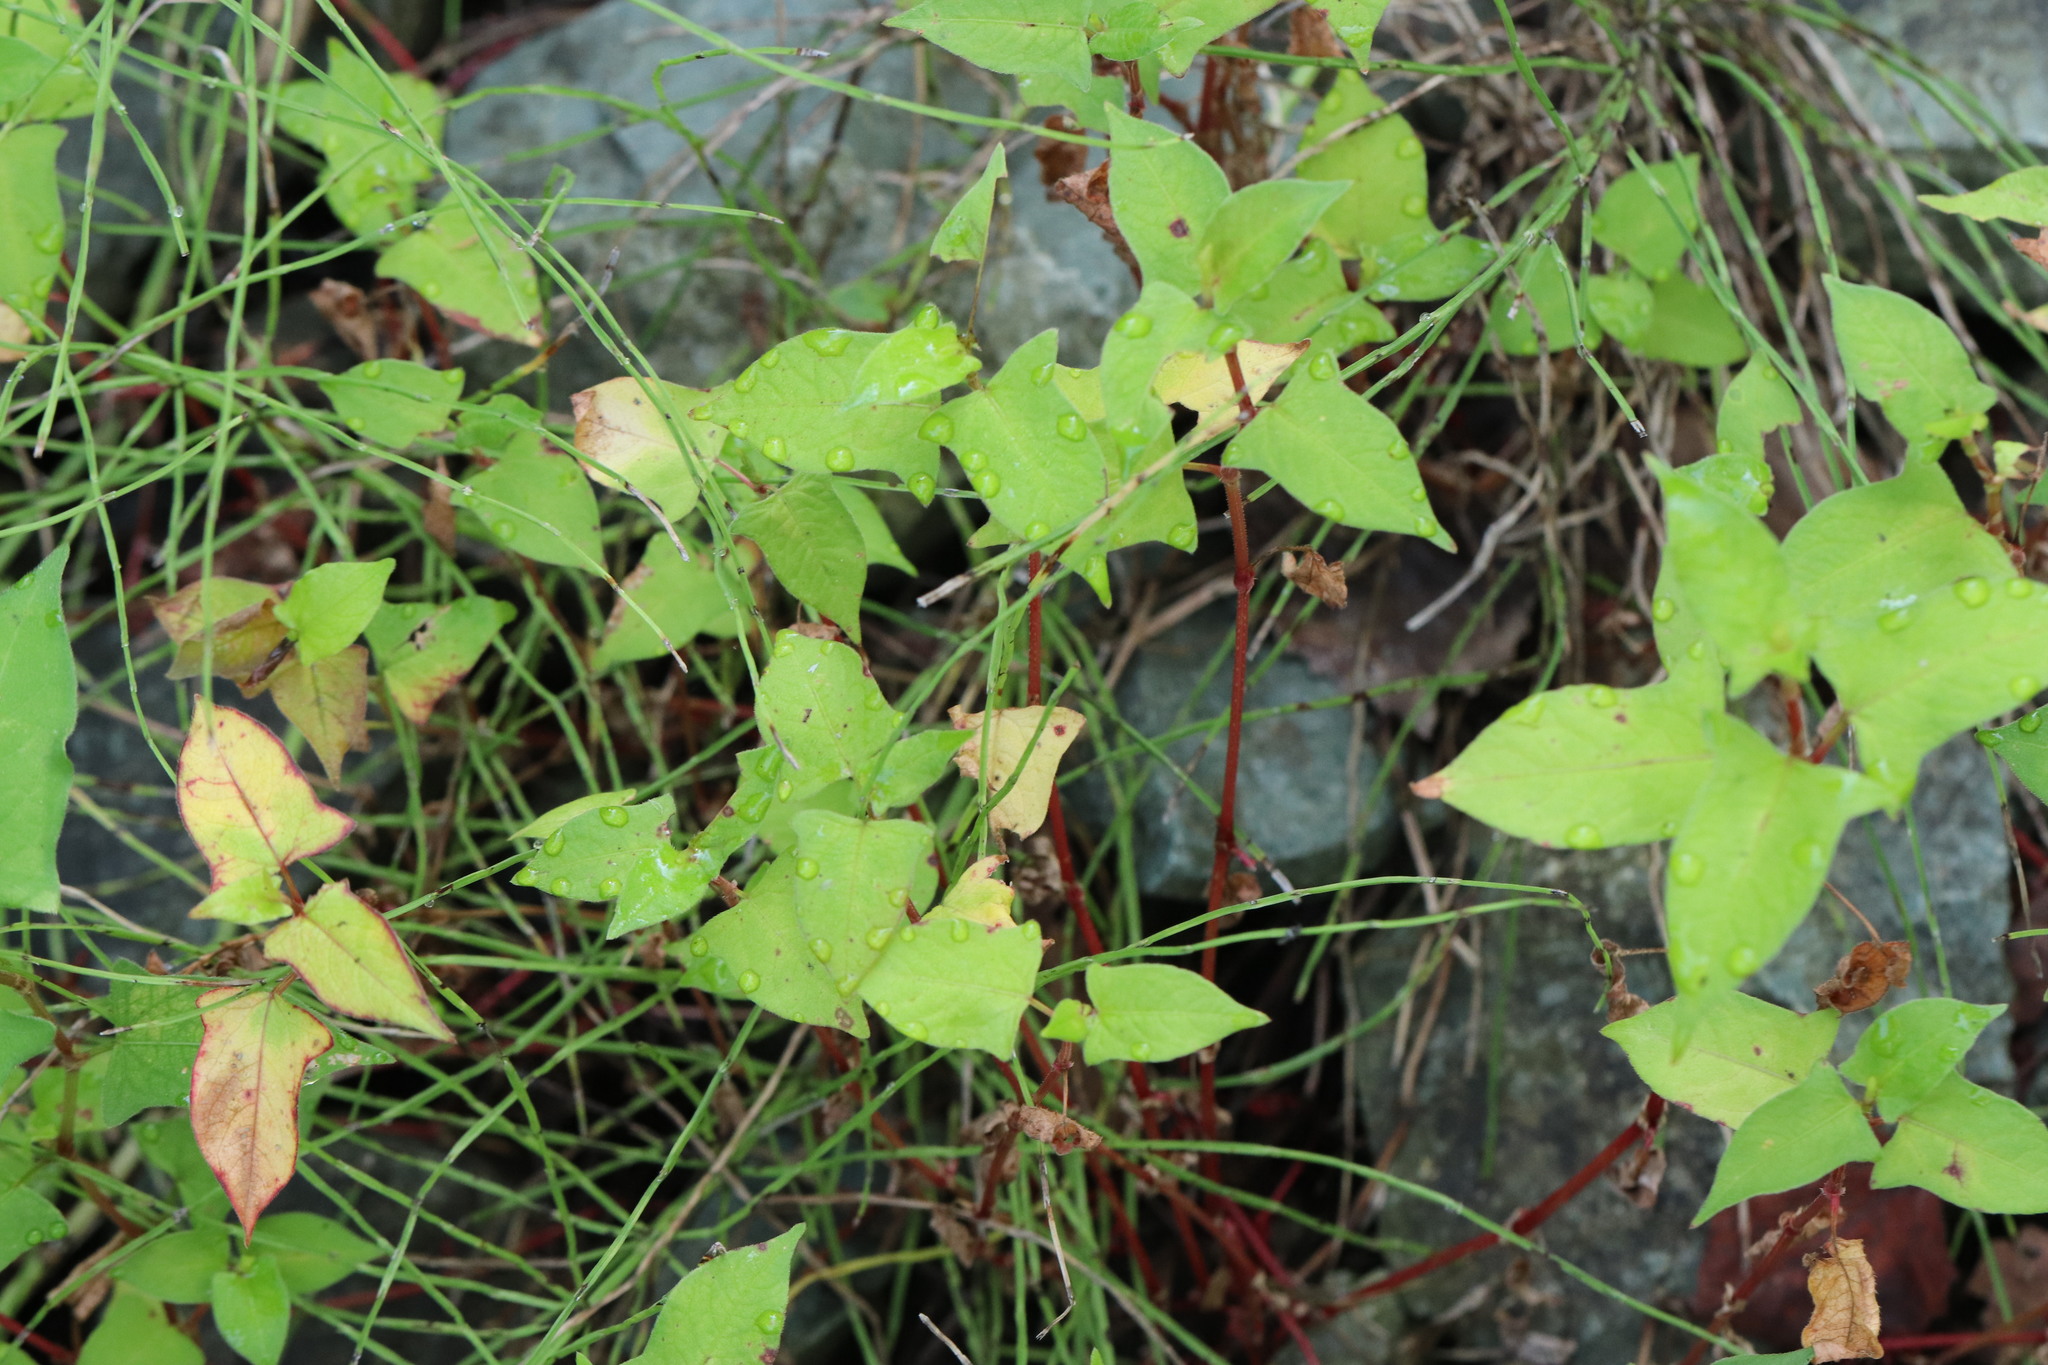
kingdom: Plantae
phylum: Tracheophyta
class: Magnoliopsida
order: Caryophyllales
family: Polygonaceae
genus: Persicaria
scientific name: Persicaria thunbergii
